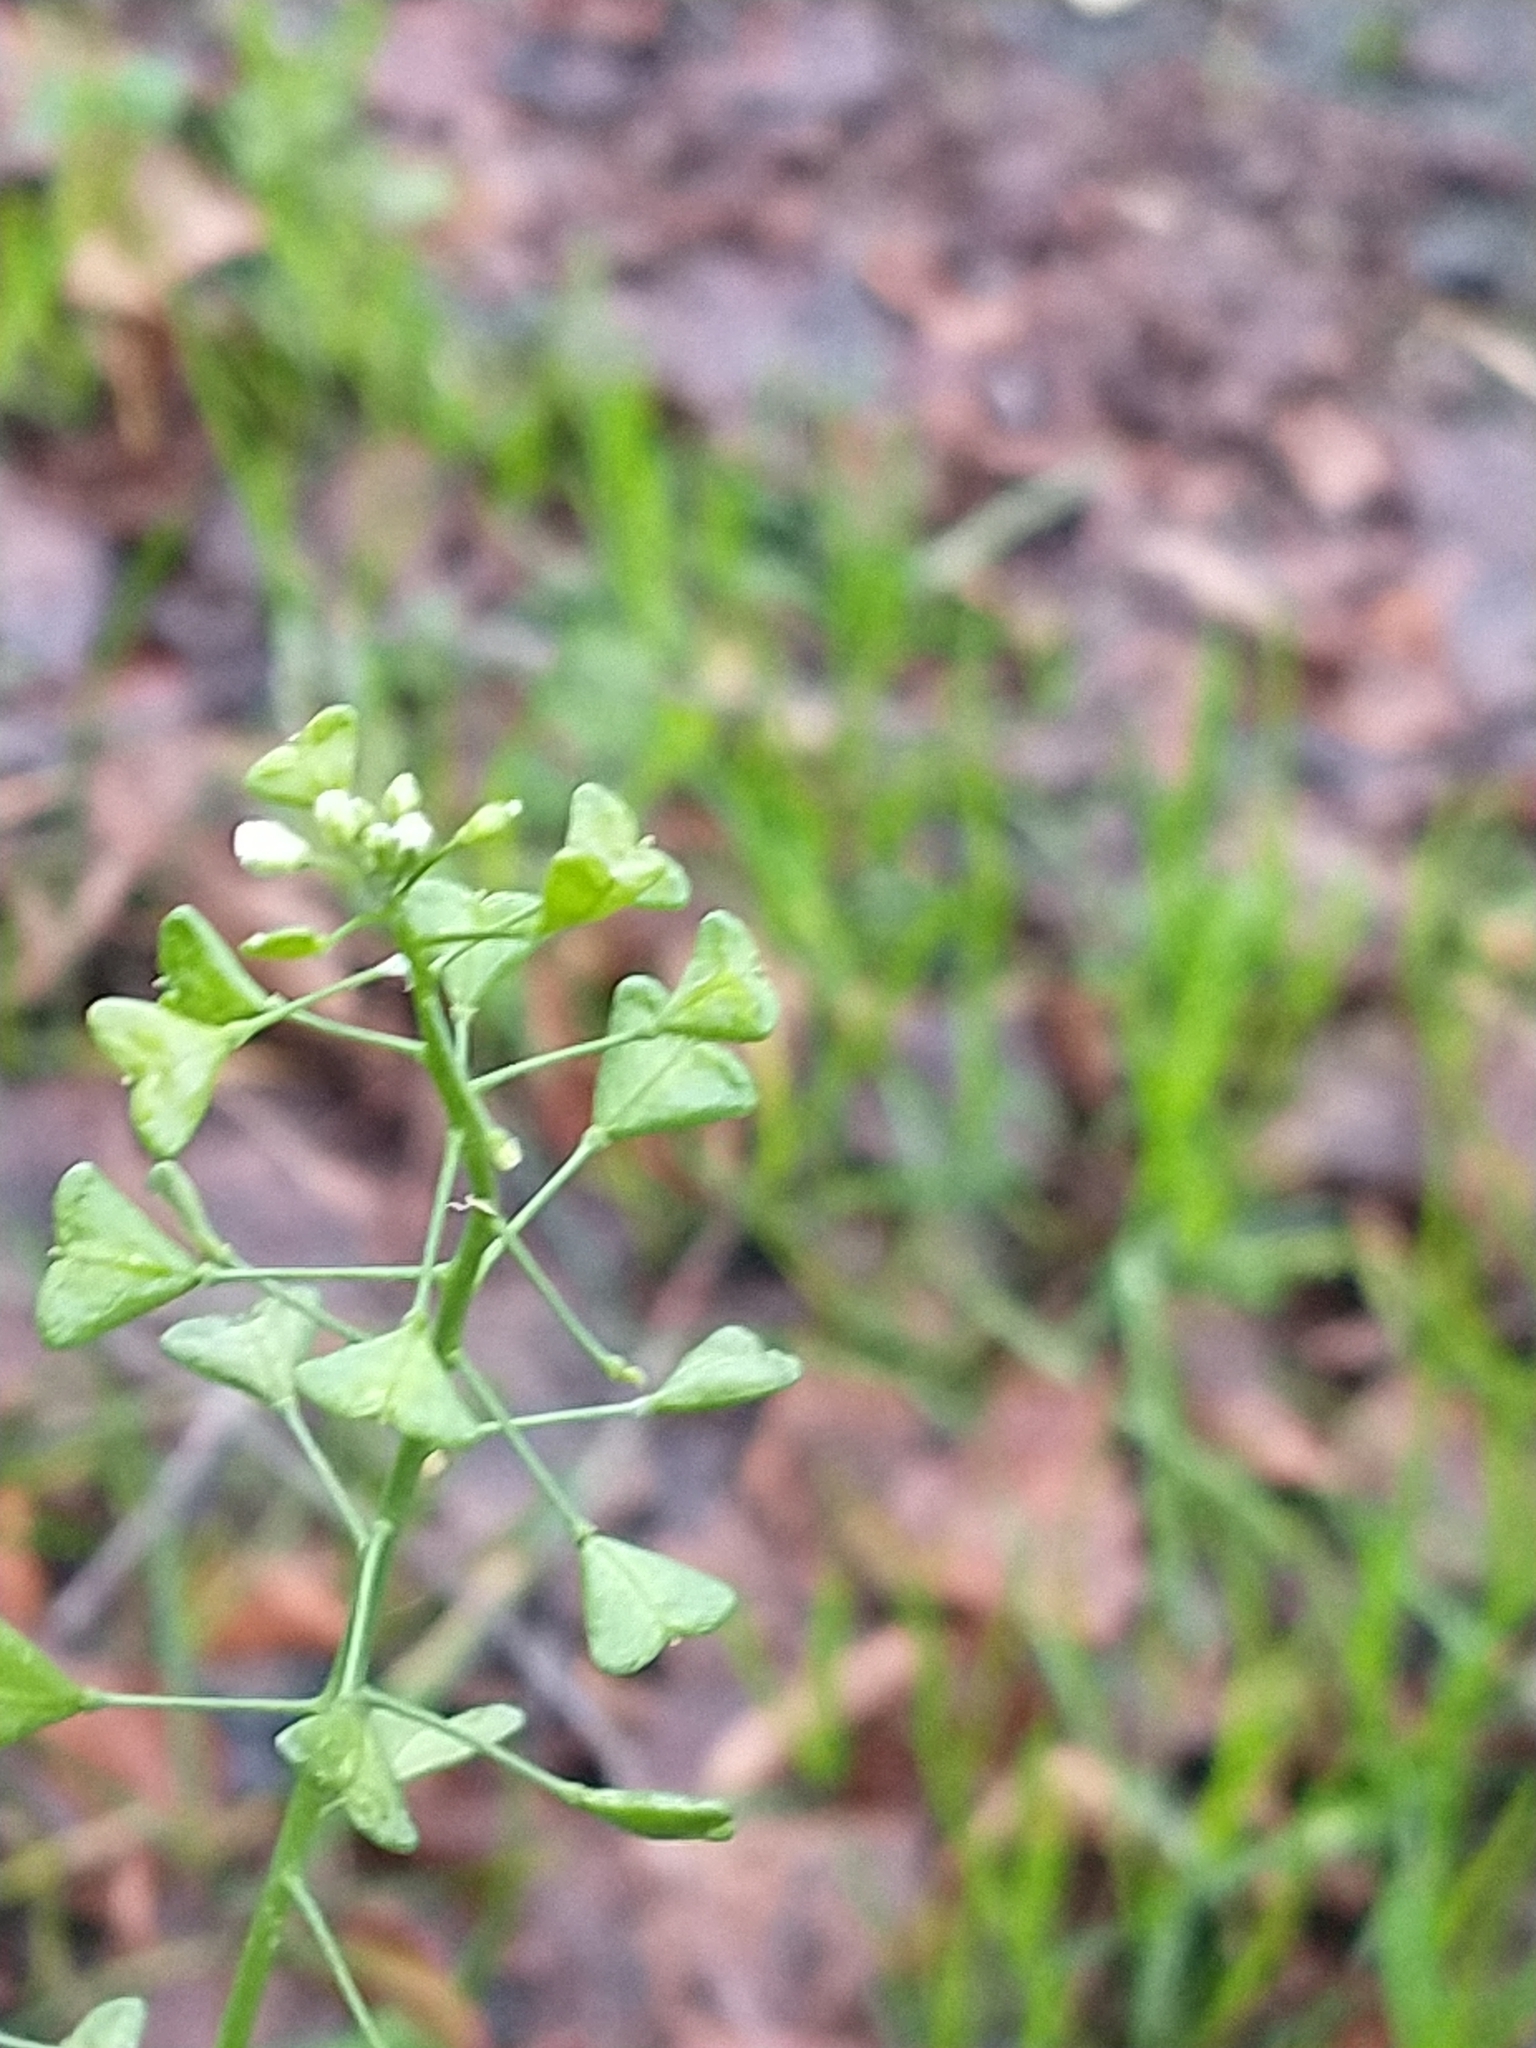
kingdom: Plantae
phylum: Tracheophyta
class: Magnoliopsida
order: Brassicales
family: Brassicaceae
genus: Capsella
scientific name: Capsella bursa-pastoris
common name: Shepherd's purse
